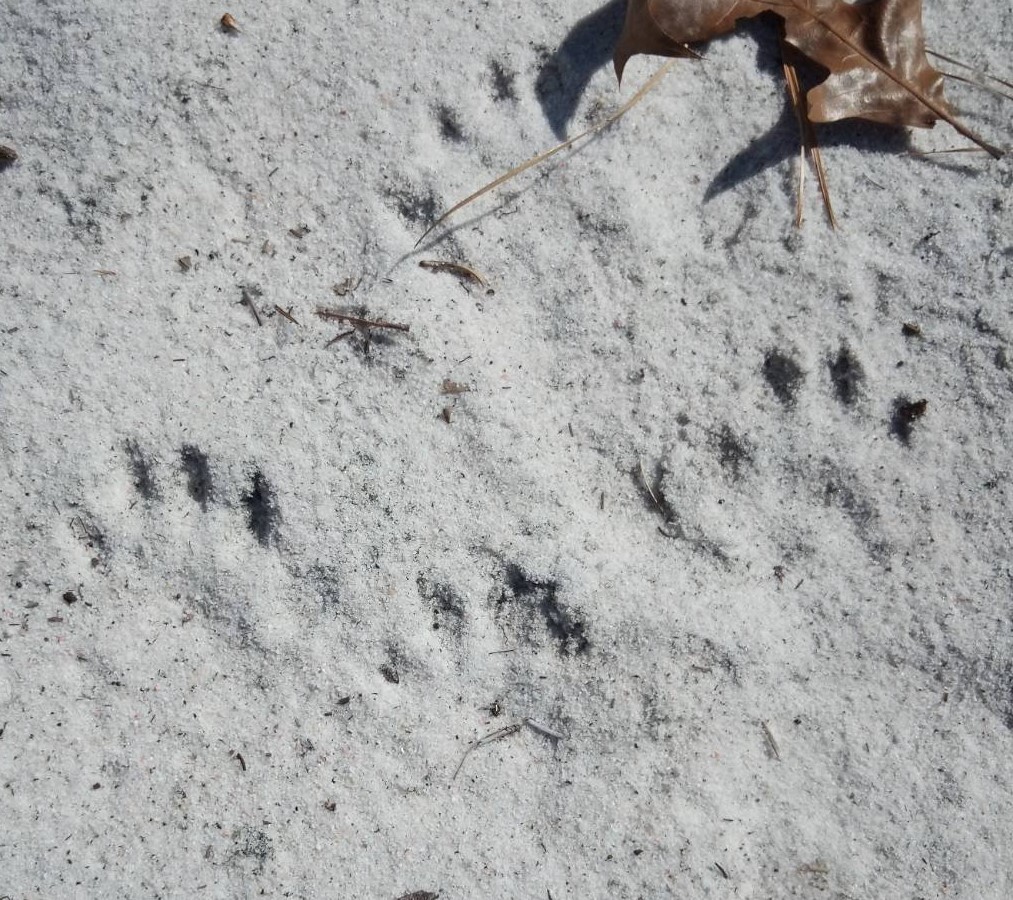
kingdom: Animalia
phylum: Chordata
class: Mammalia
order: Carnivora
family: Mustelidae
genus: Lontra
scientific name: Lontra canadensis
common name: North american river otter
